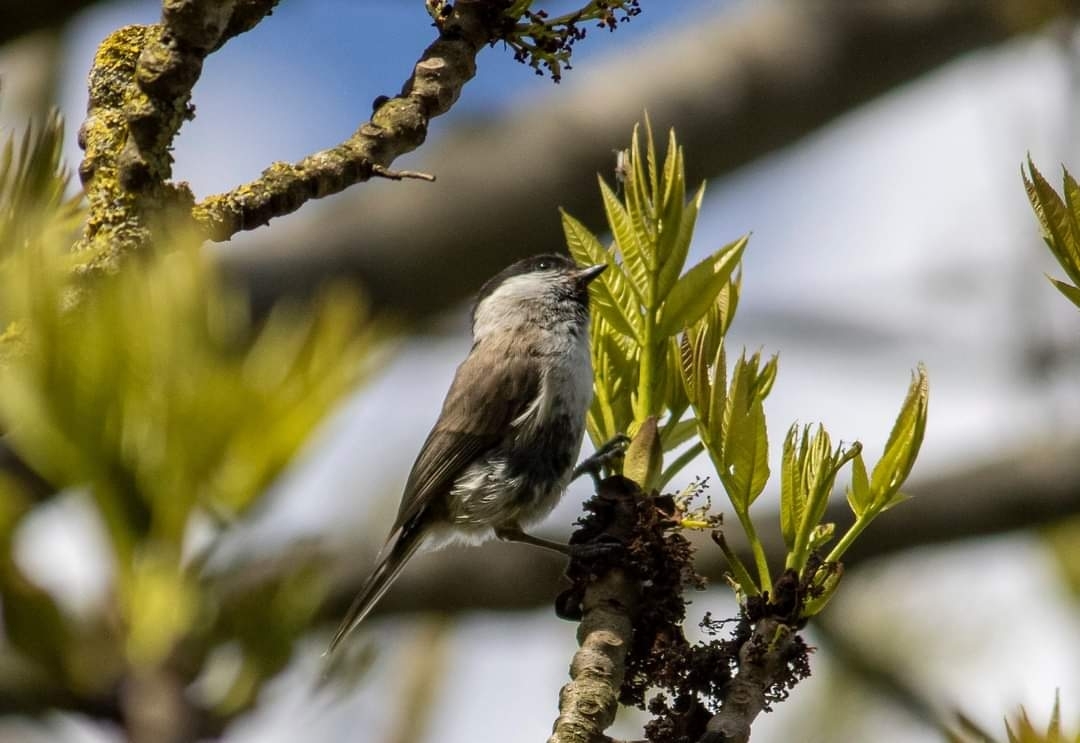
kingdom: Animalia
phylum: Chordata
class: Aves
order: Passeriformes
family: Paridae
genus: Poecile
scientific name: Poecile palustris
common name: Marsh tit
